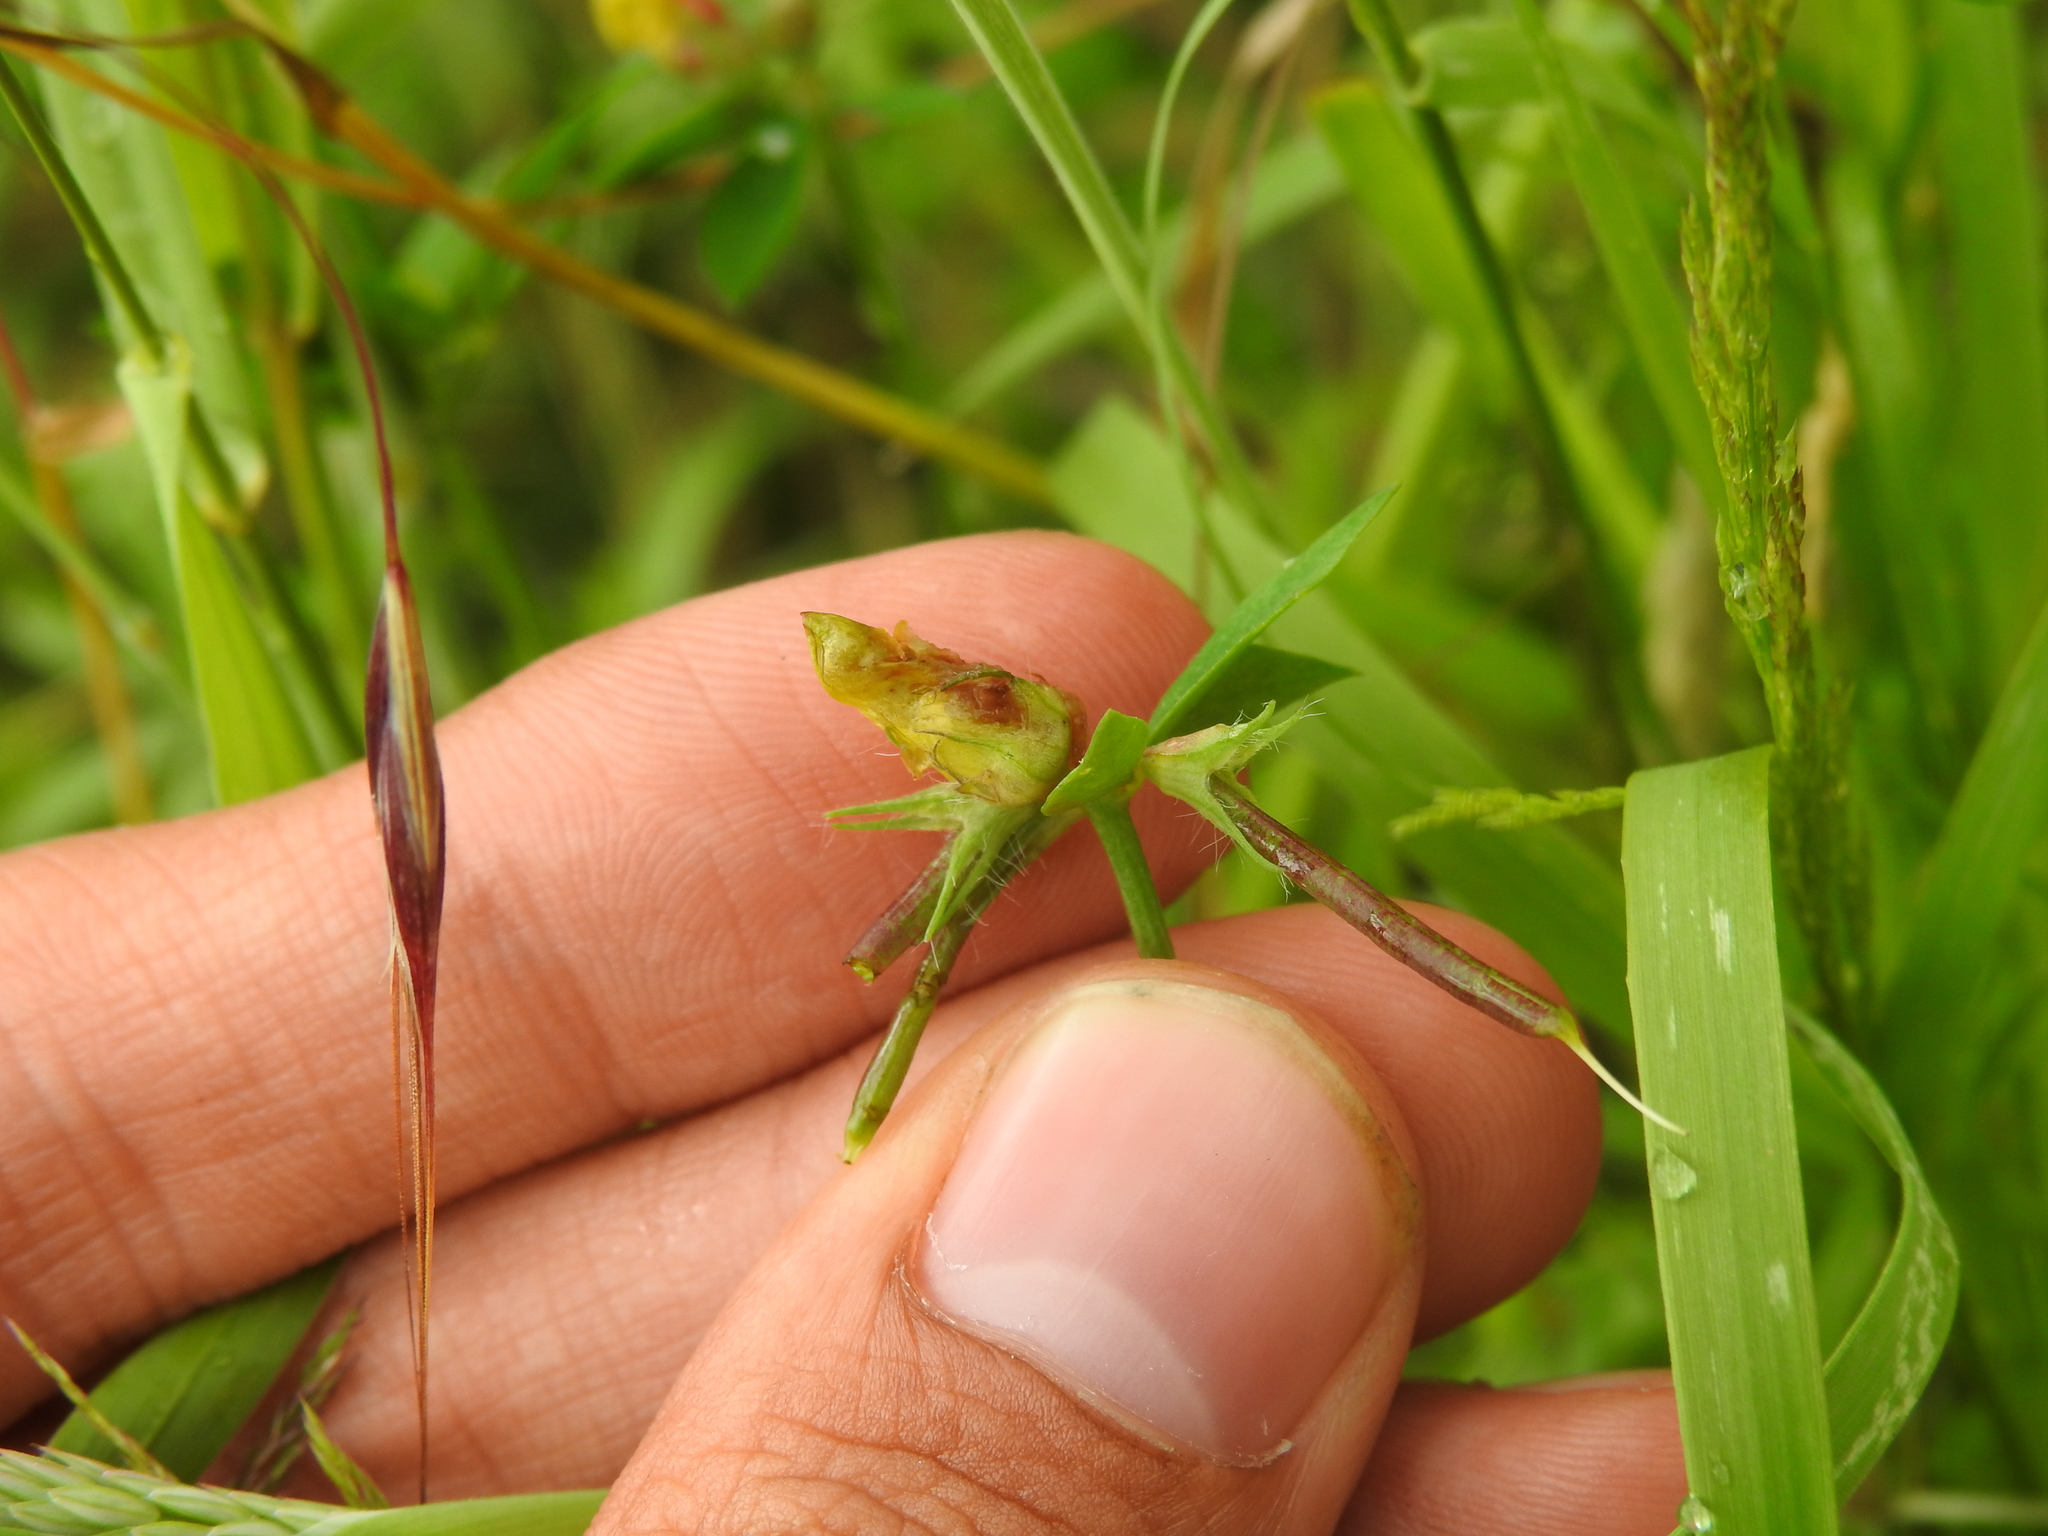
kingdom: Animalia
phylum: Arthropoda
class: Insecta
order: Diptera
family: Cecidomyiidae
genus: Contarinia
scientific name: Contarinia loti
